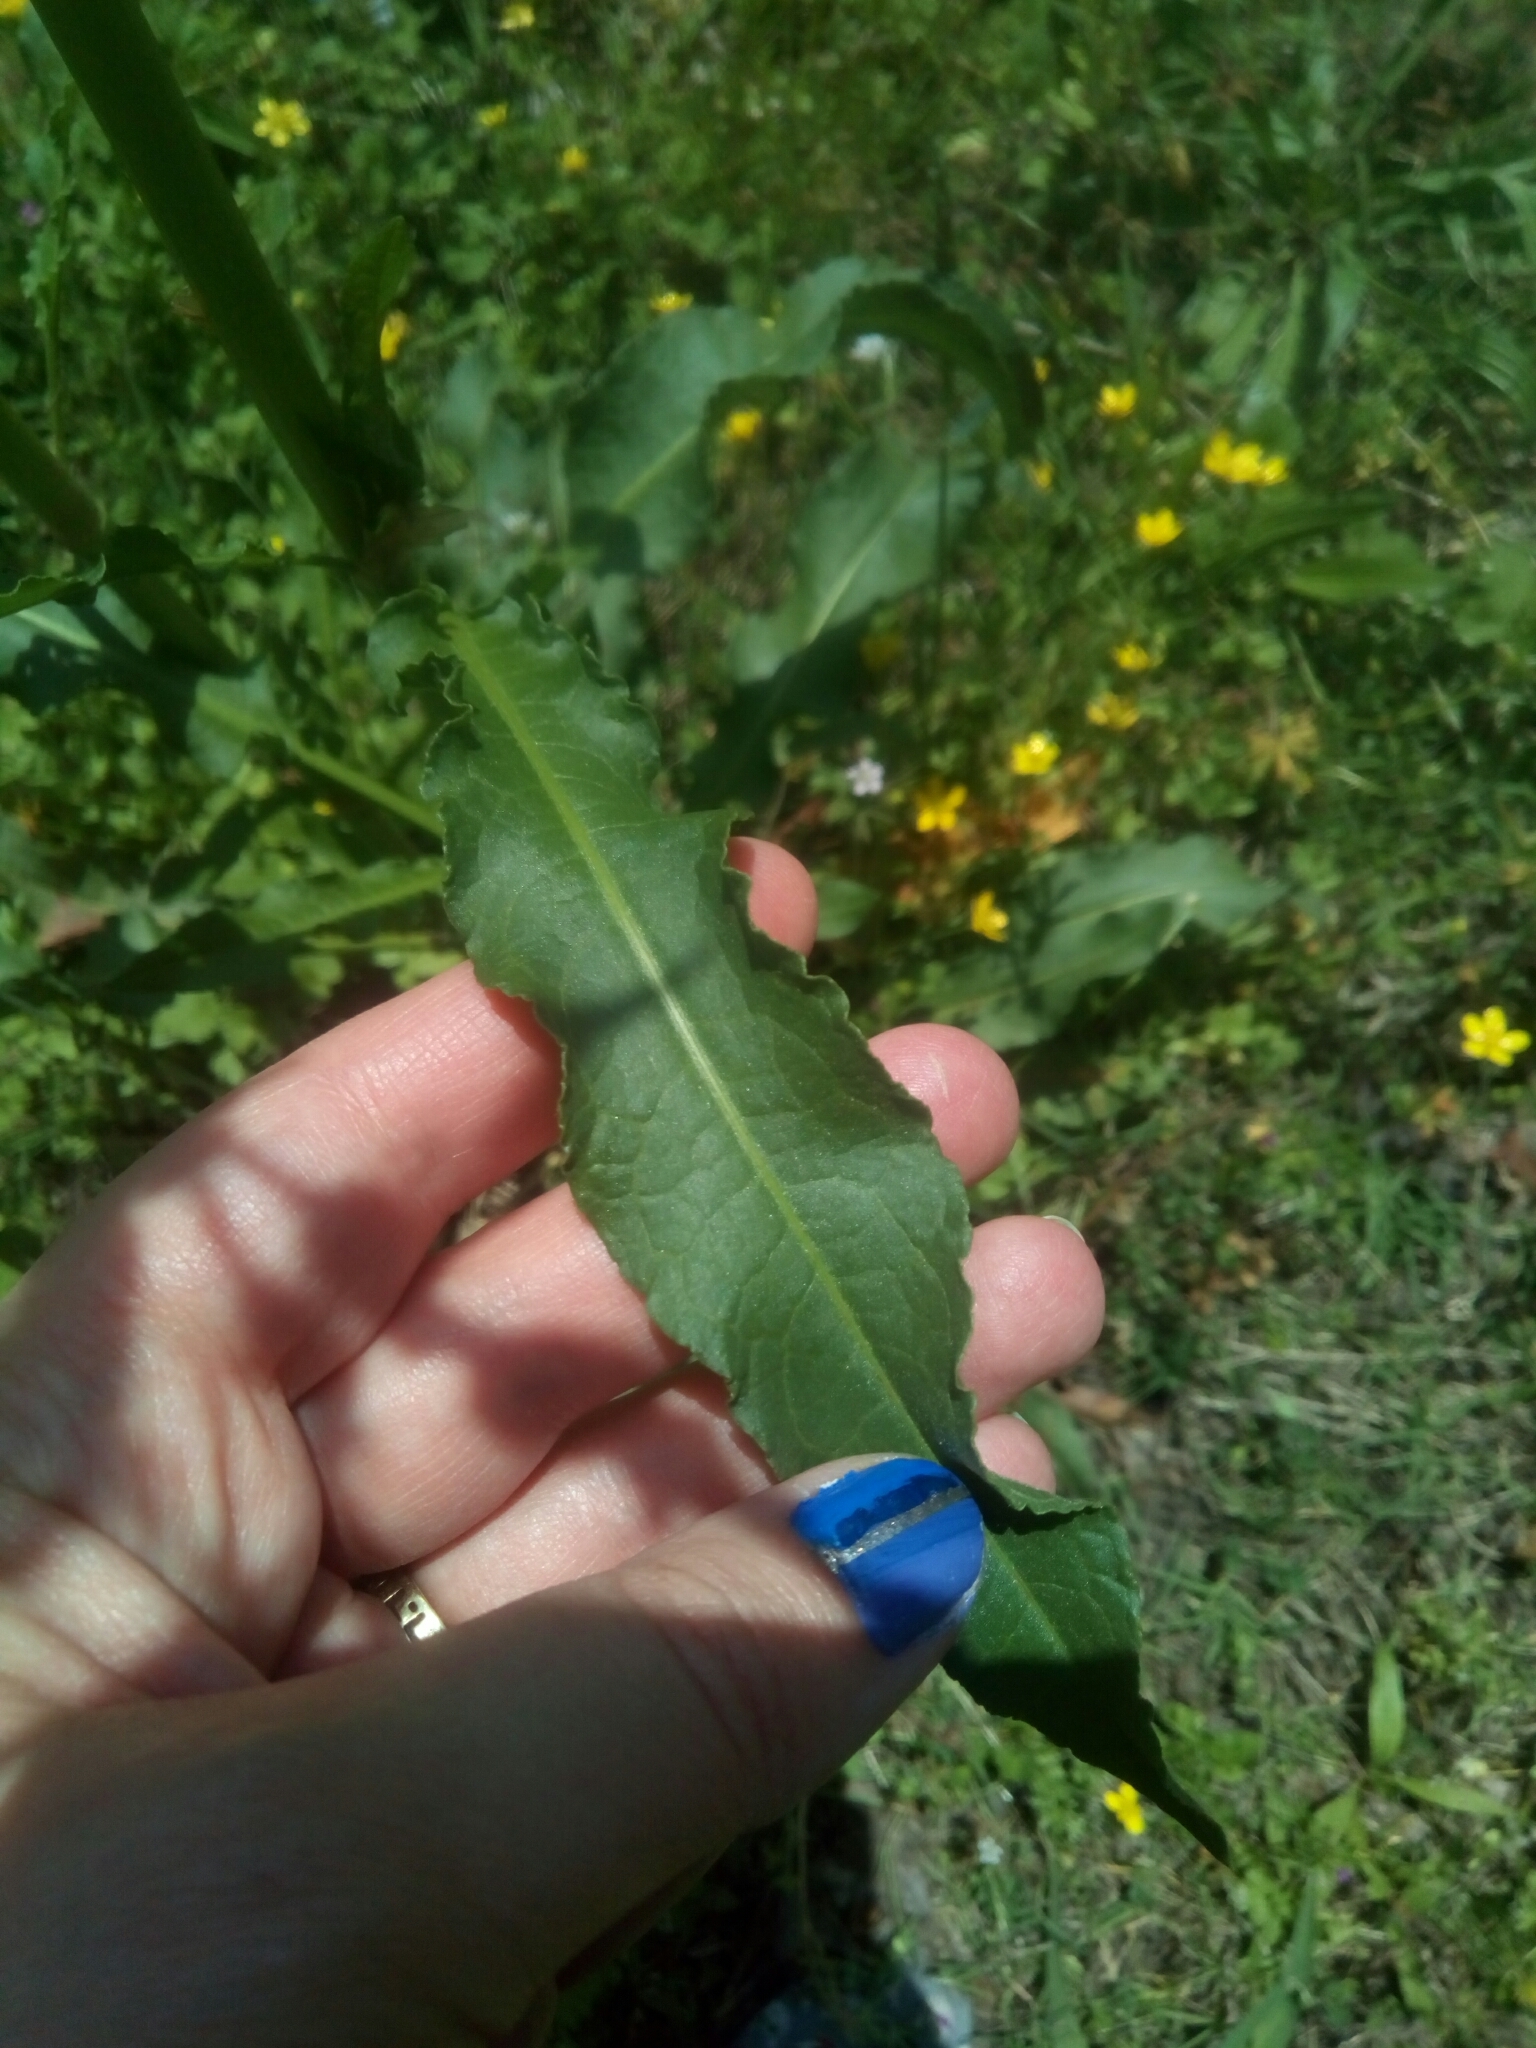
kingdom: Plantae
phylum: Tracheophyta
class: Magnoliopsida
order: Caryophyllales
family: Polygonaceae
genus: Rumex
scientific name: Rumex crispus
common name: Curled dock
